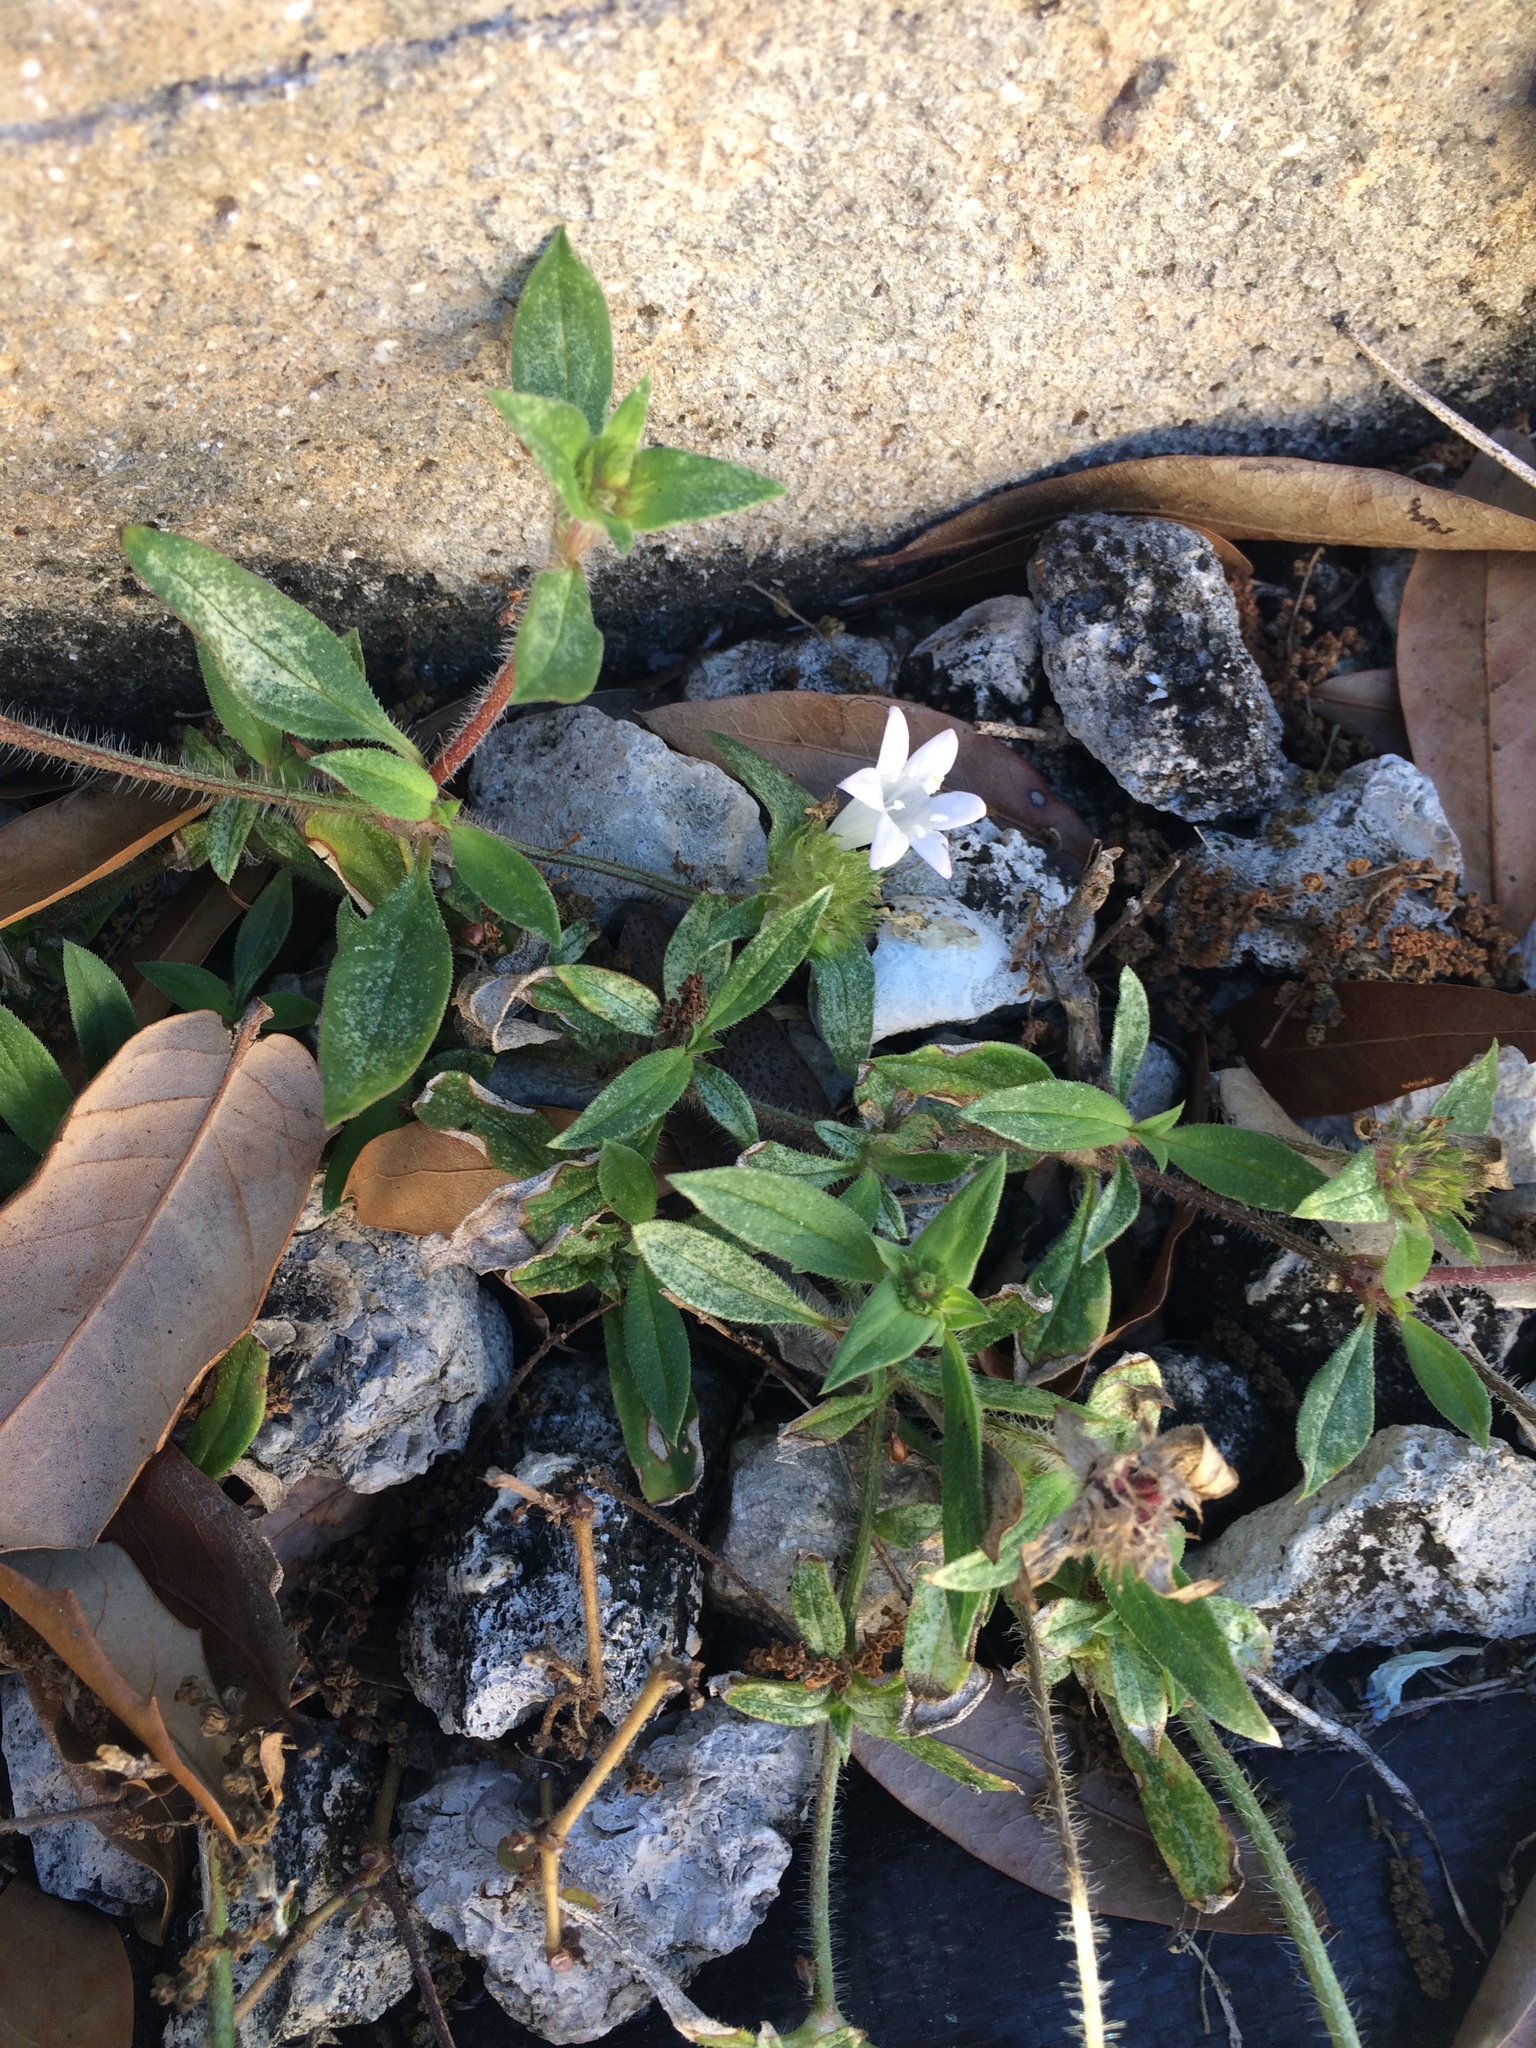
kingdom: Plantae
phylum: Tracheophyta
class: Magnoliopsida
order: Gentianales
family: Rubiaceae
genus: Richardia
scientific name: Richardia grandiflora
